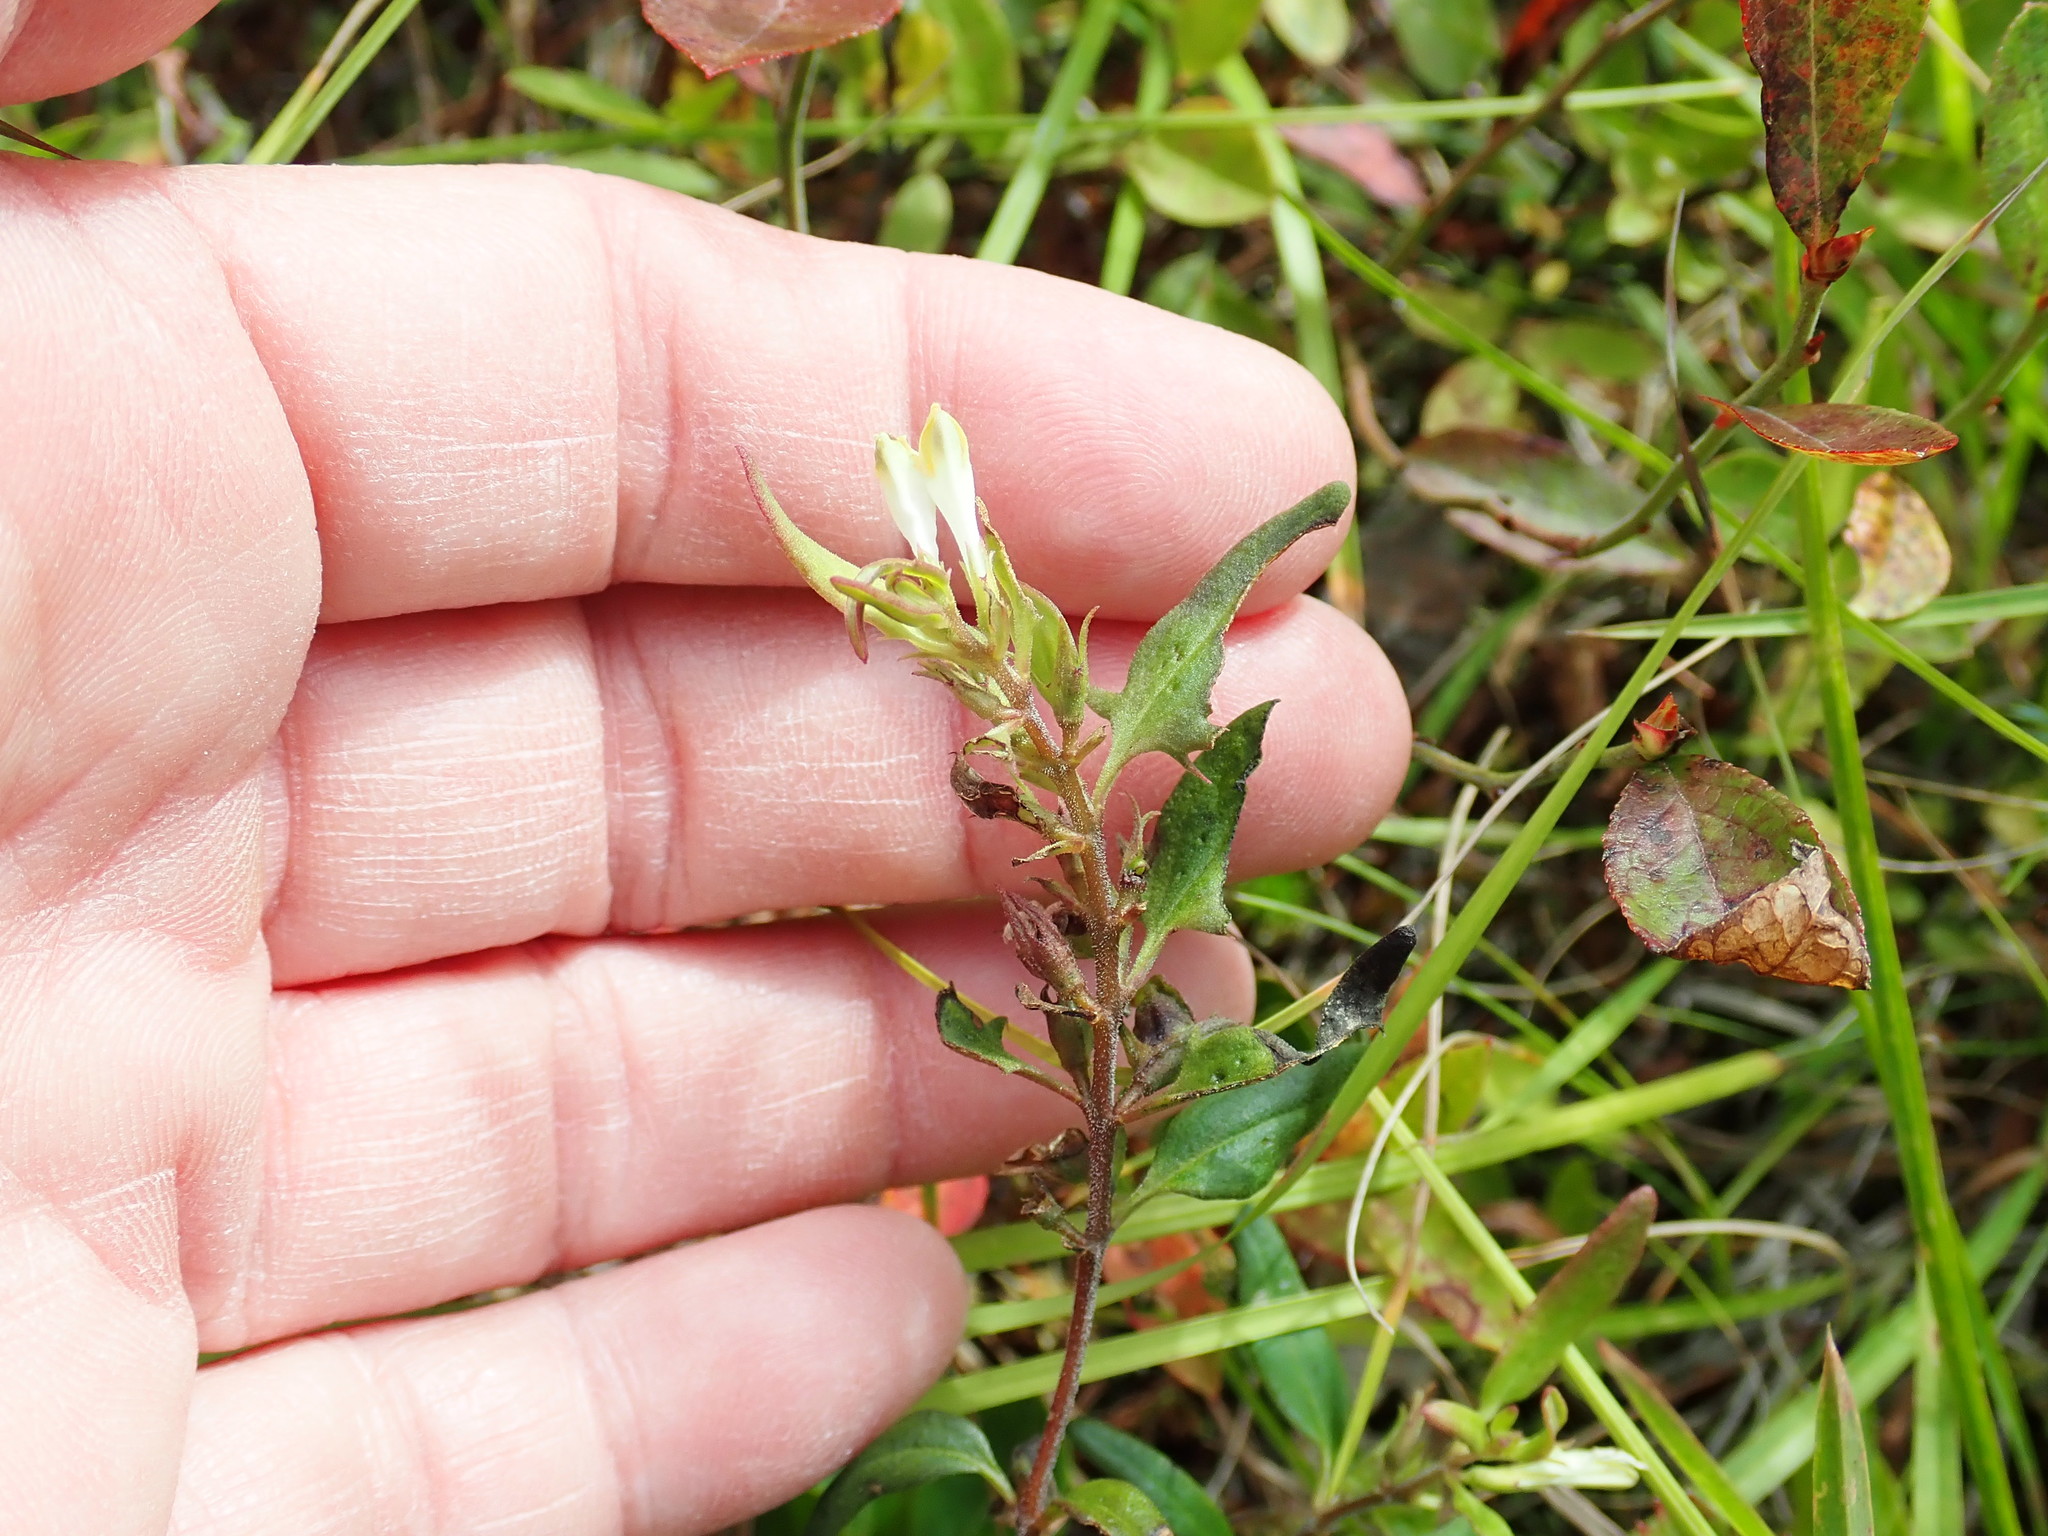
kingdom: Plantae
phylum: Tracheophyta
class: Magnoliopsida
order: Lamiales
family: Orobanchaceae
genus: Melampyrum
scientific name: Melampyrum lineare
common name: American cow-wheat
